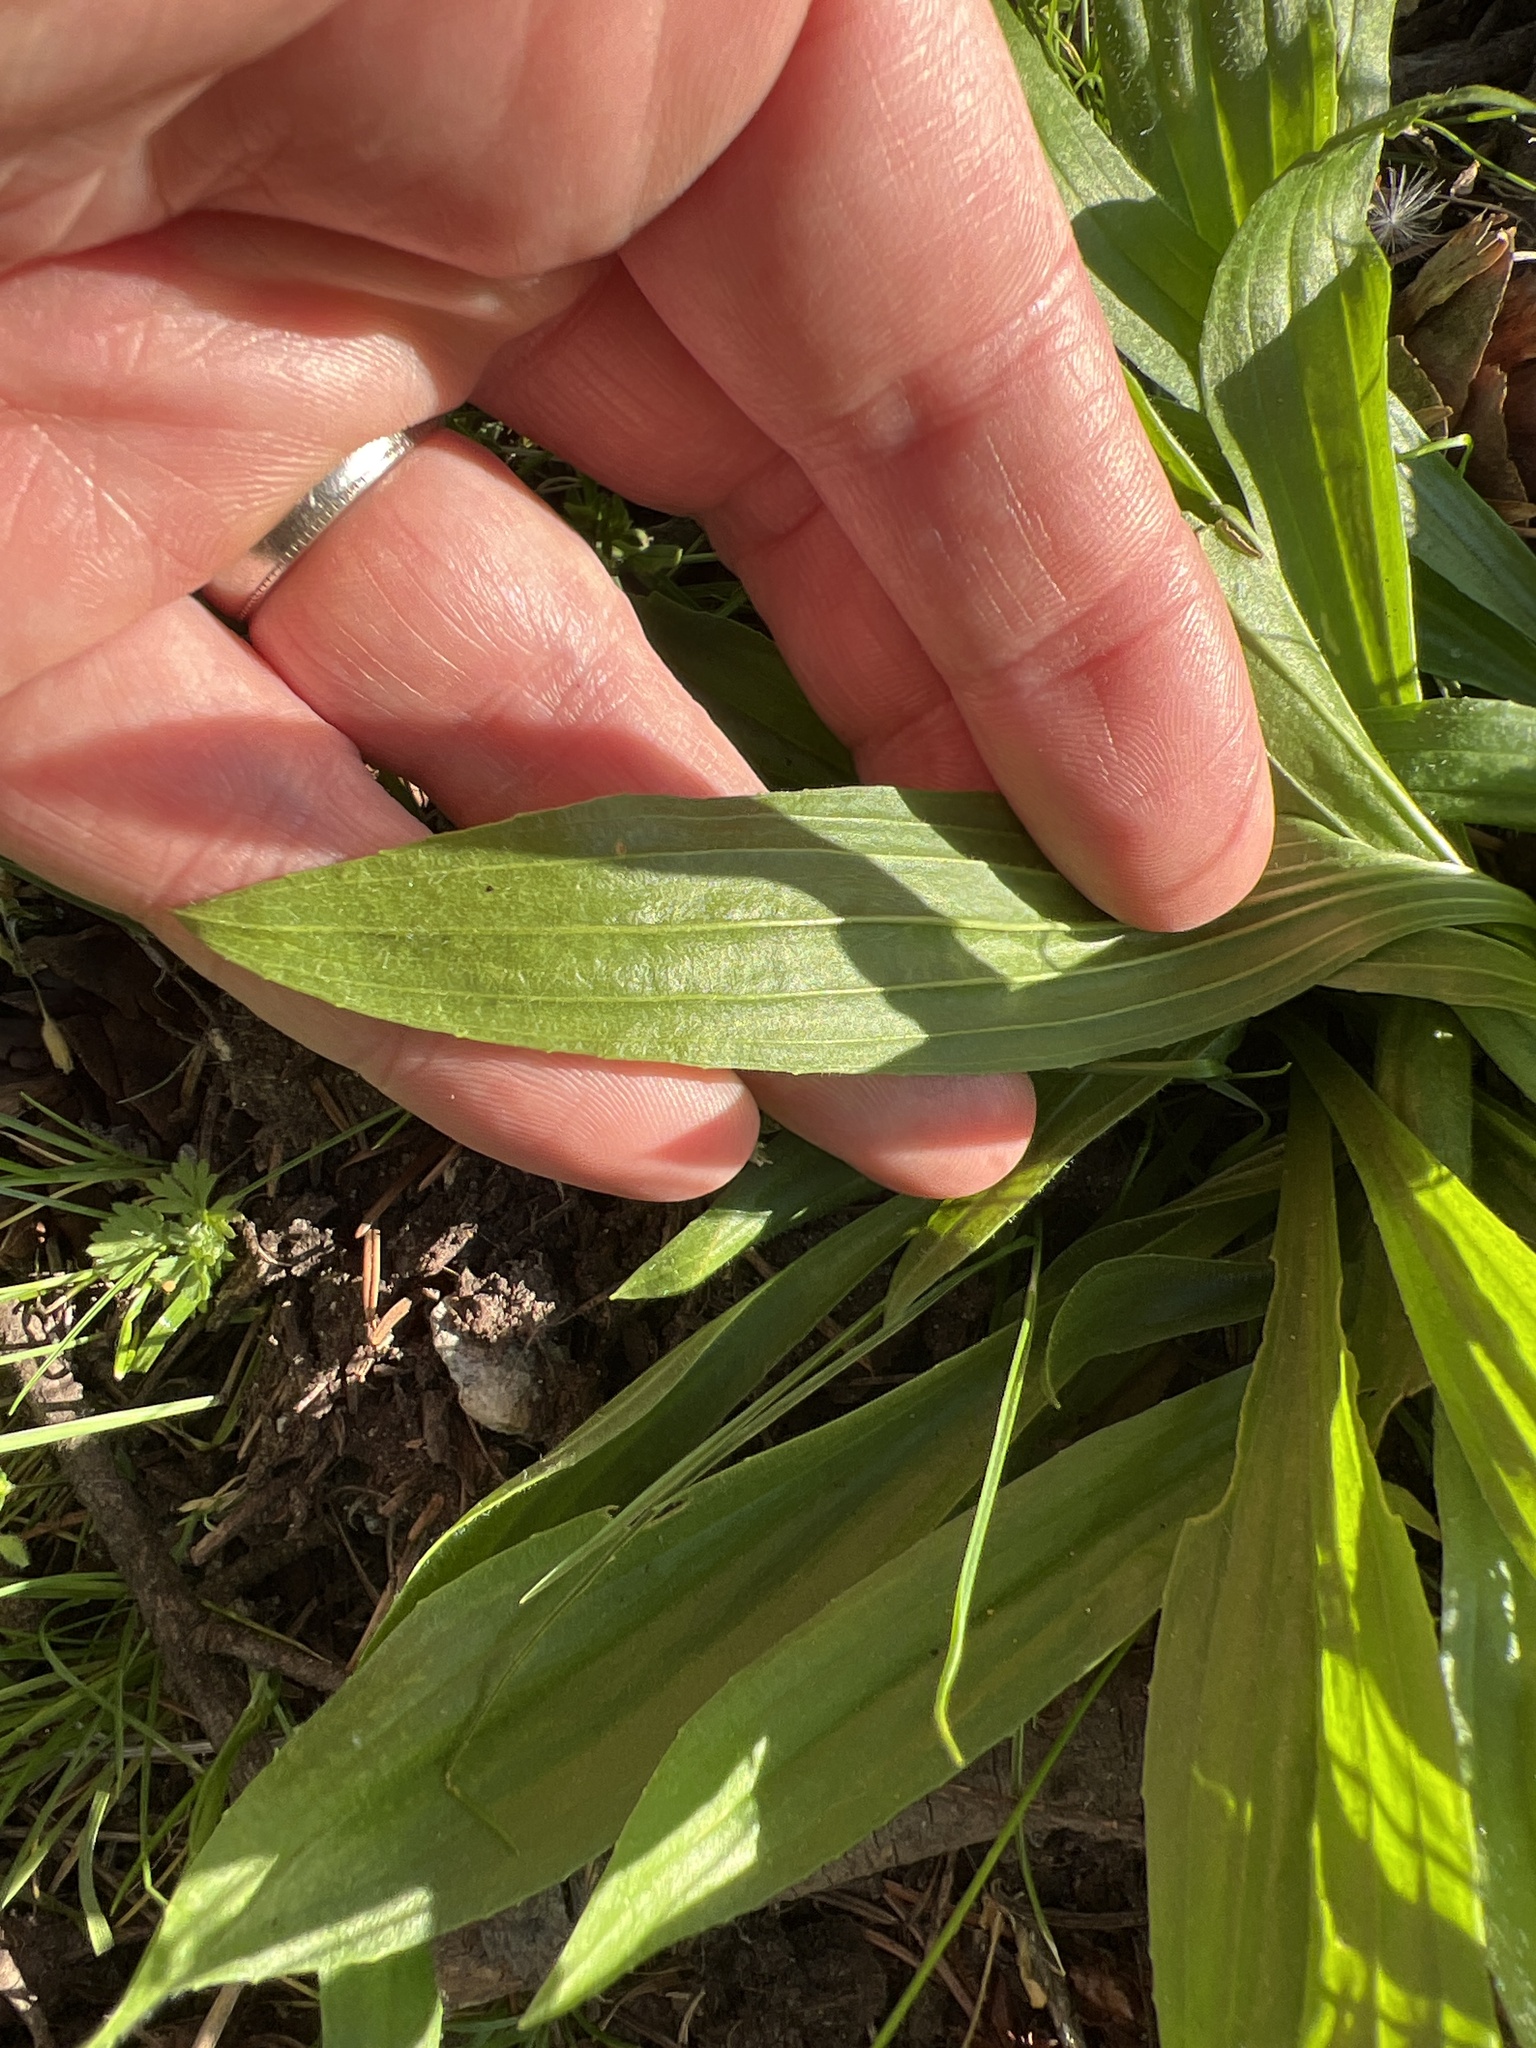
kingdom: Plantae
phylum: Tracheophyta
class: Magnoliopsida
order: Lamiales
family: Plantaginaceae
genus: Plantago
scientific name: Plantago lanceolata
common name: Ribwort plantain
